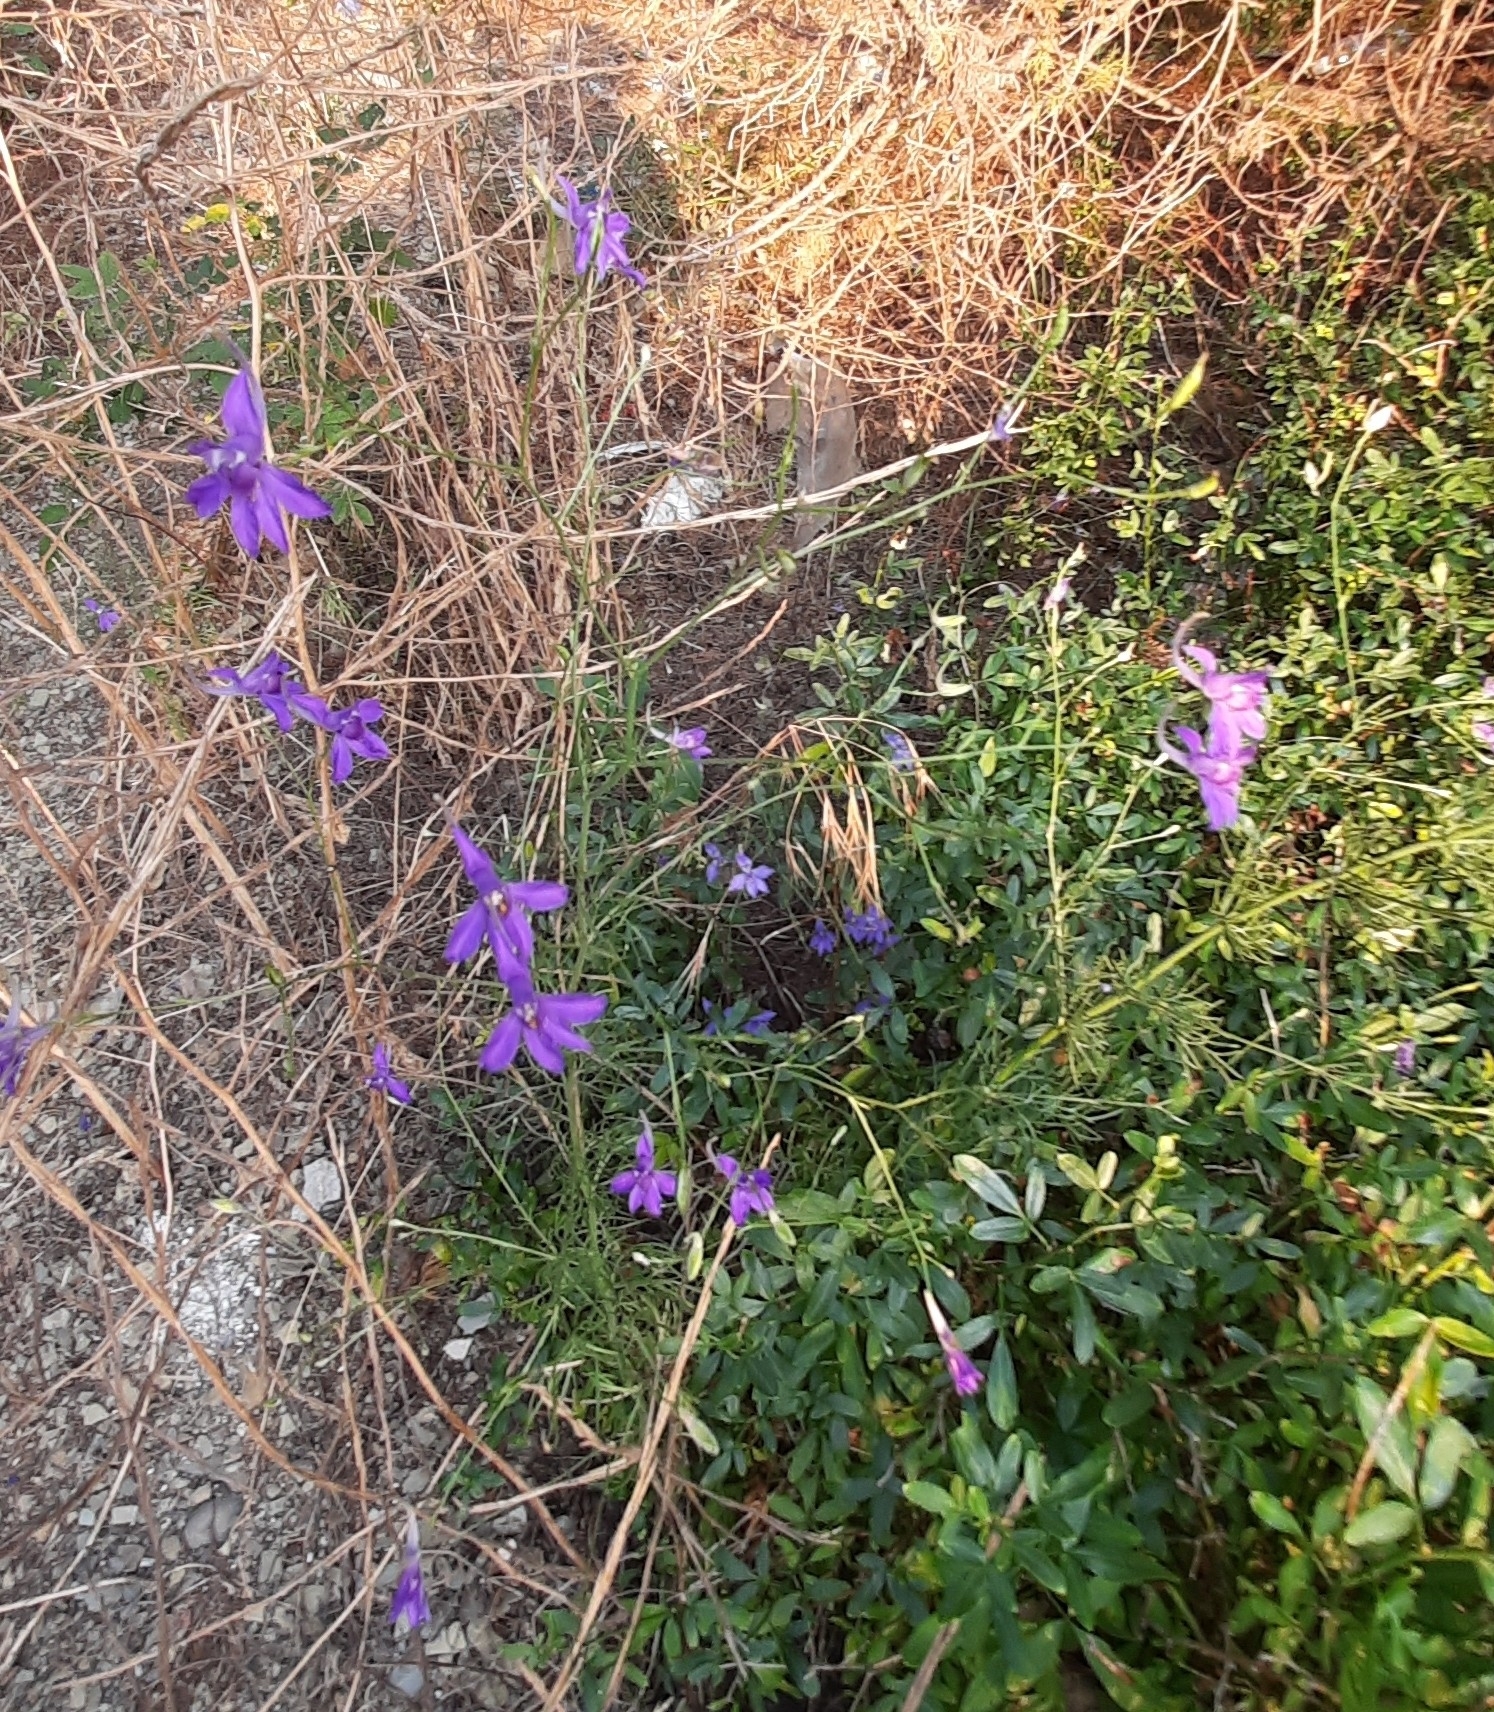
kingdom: Plantae
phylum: Tracheophyta
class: Magnoliopsida
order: Ranunculales
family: Ranunculaceae
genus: Delphinium
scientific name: Delphinium consolida
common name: Branching larkspur
